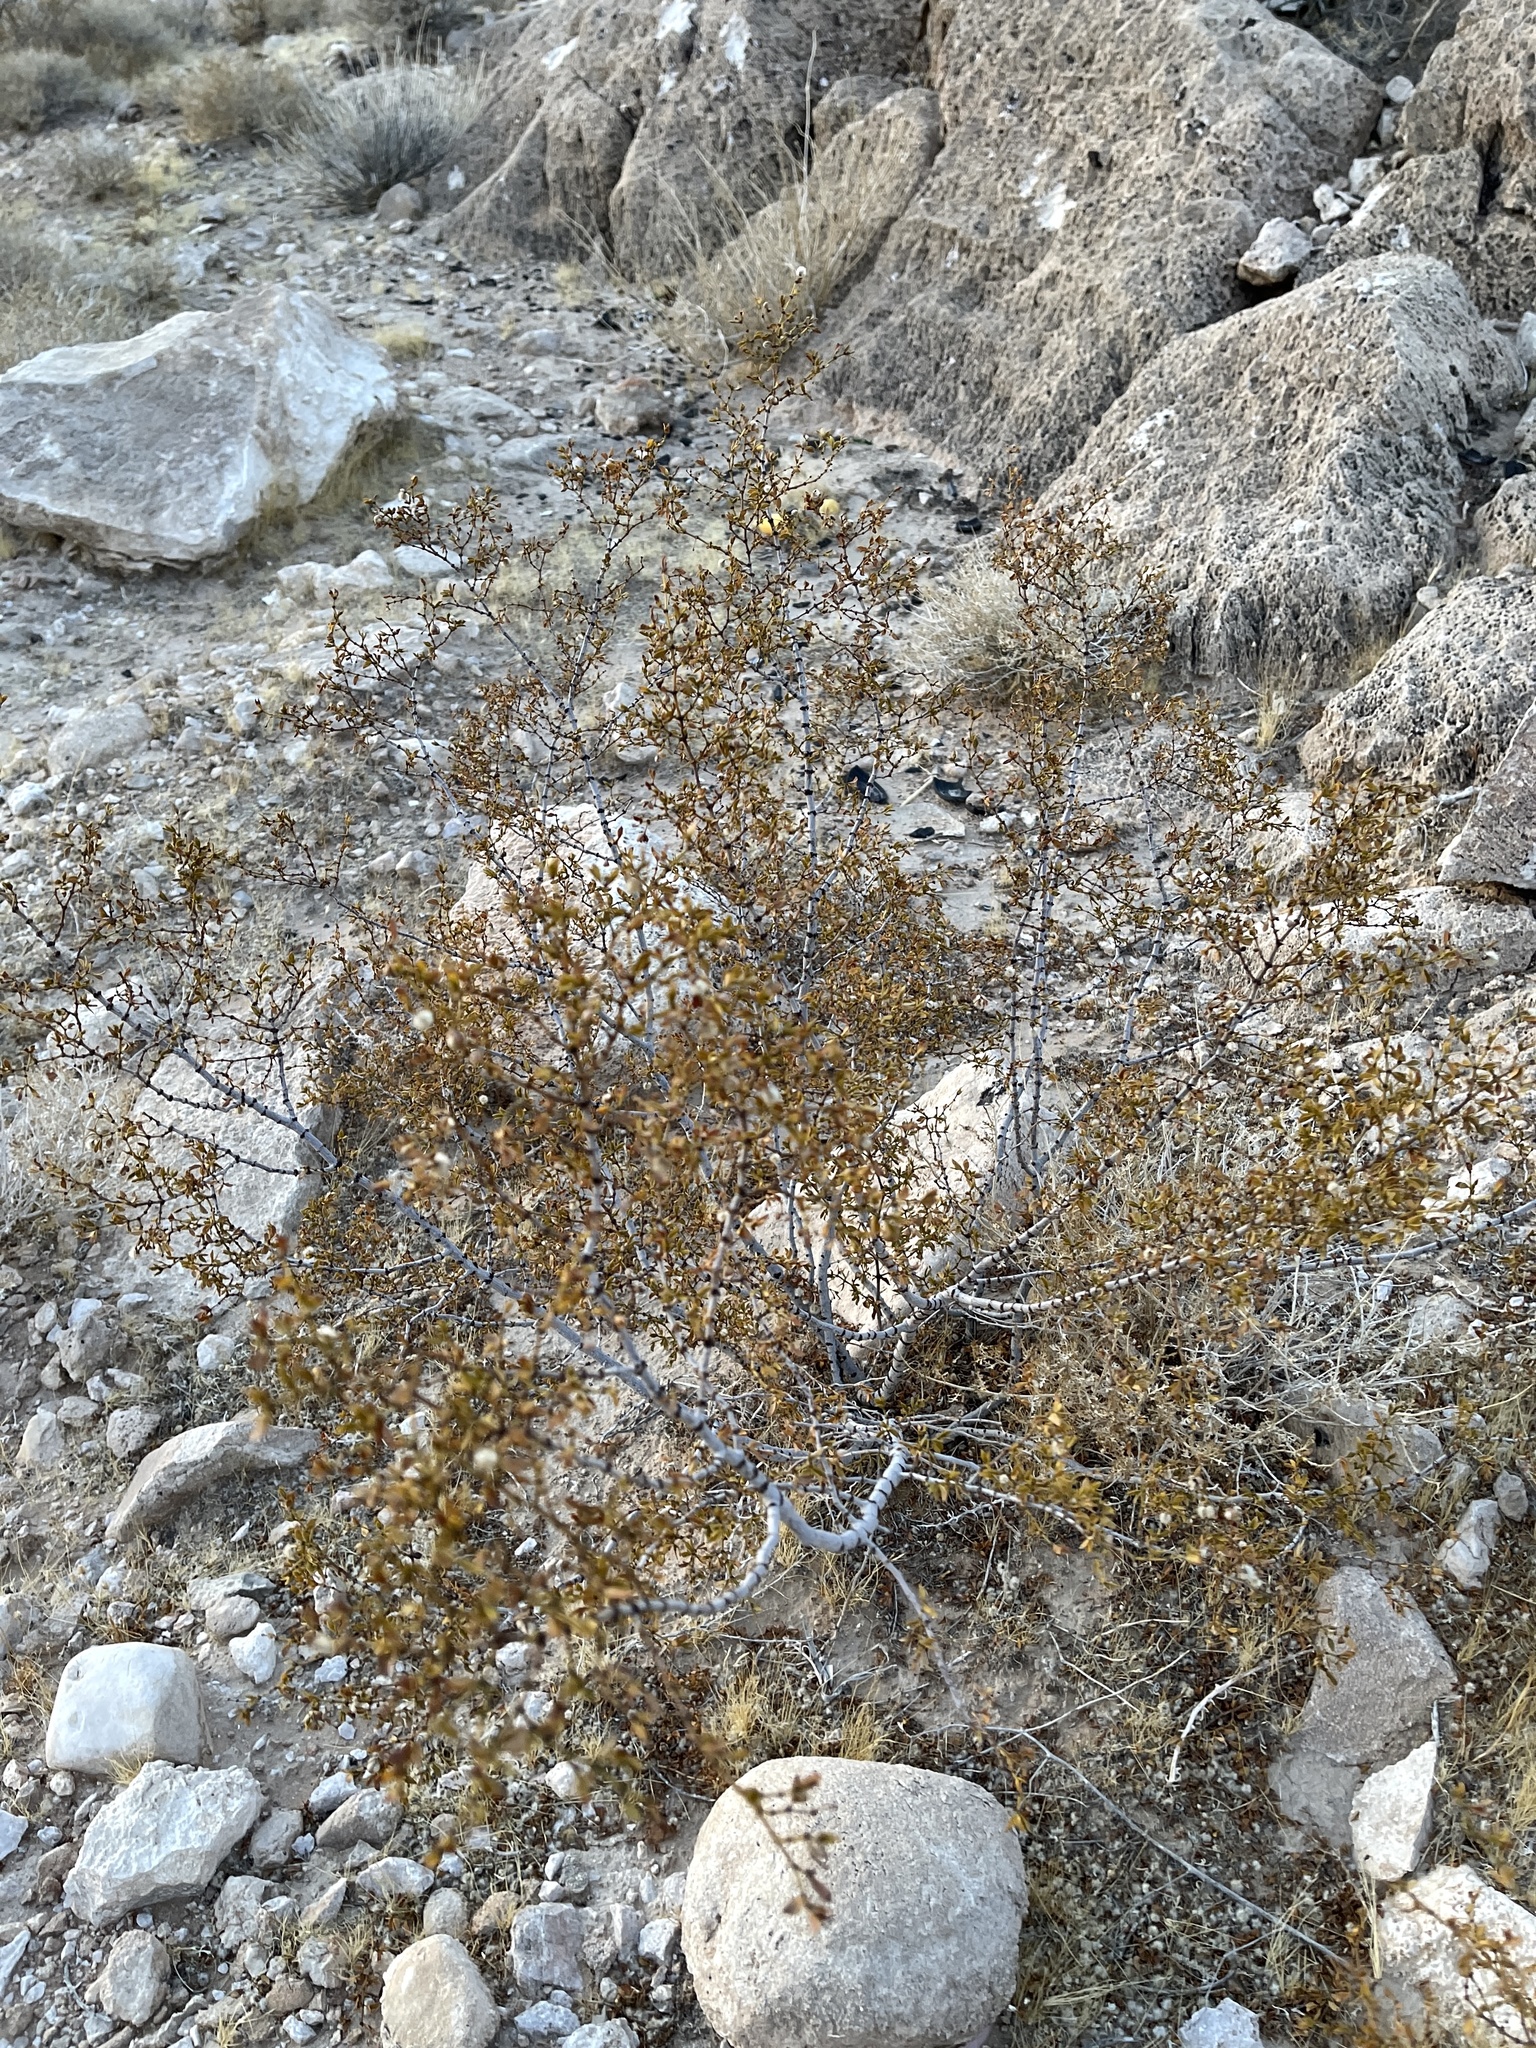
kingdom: Plantae
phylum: Tracheophyta
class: Magnoliopsida
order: Zygophyllales
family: Zygophyllaceae
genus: Larrea
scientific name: Larrea tridentata
